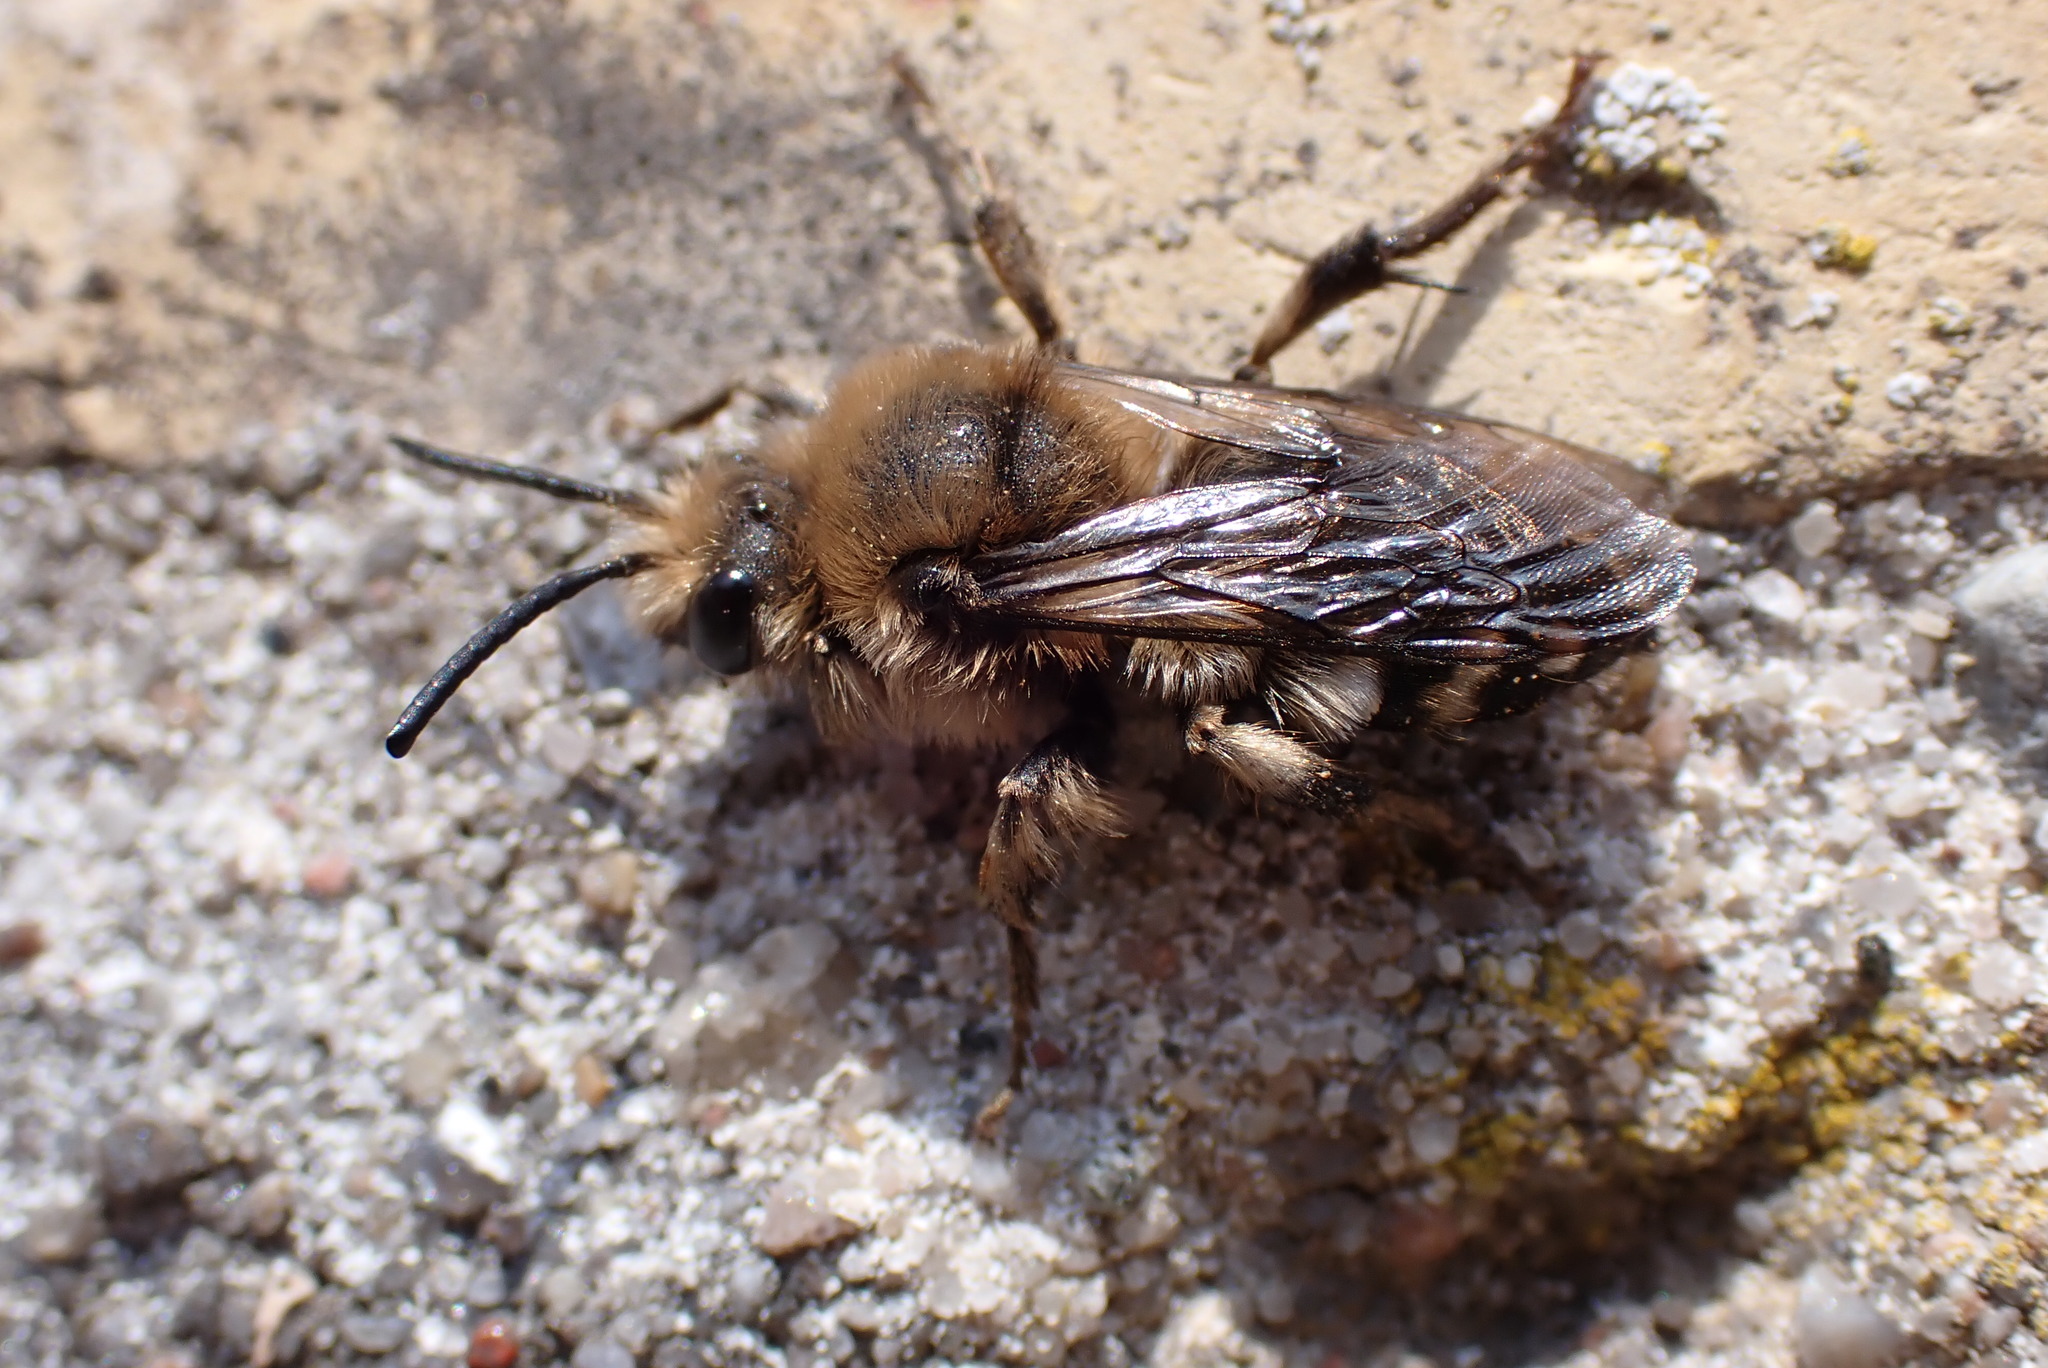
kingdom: Animalia
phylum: Arthropoda
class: Insecta
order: Hymenoptera
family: Apidae
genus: Melecta
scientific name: Melecta albifrons
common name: Common mourning bee
